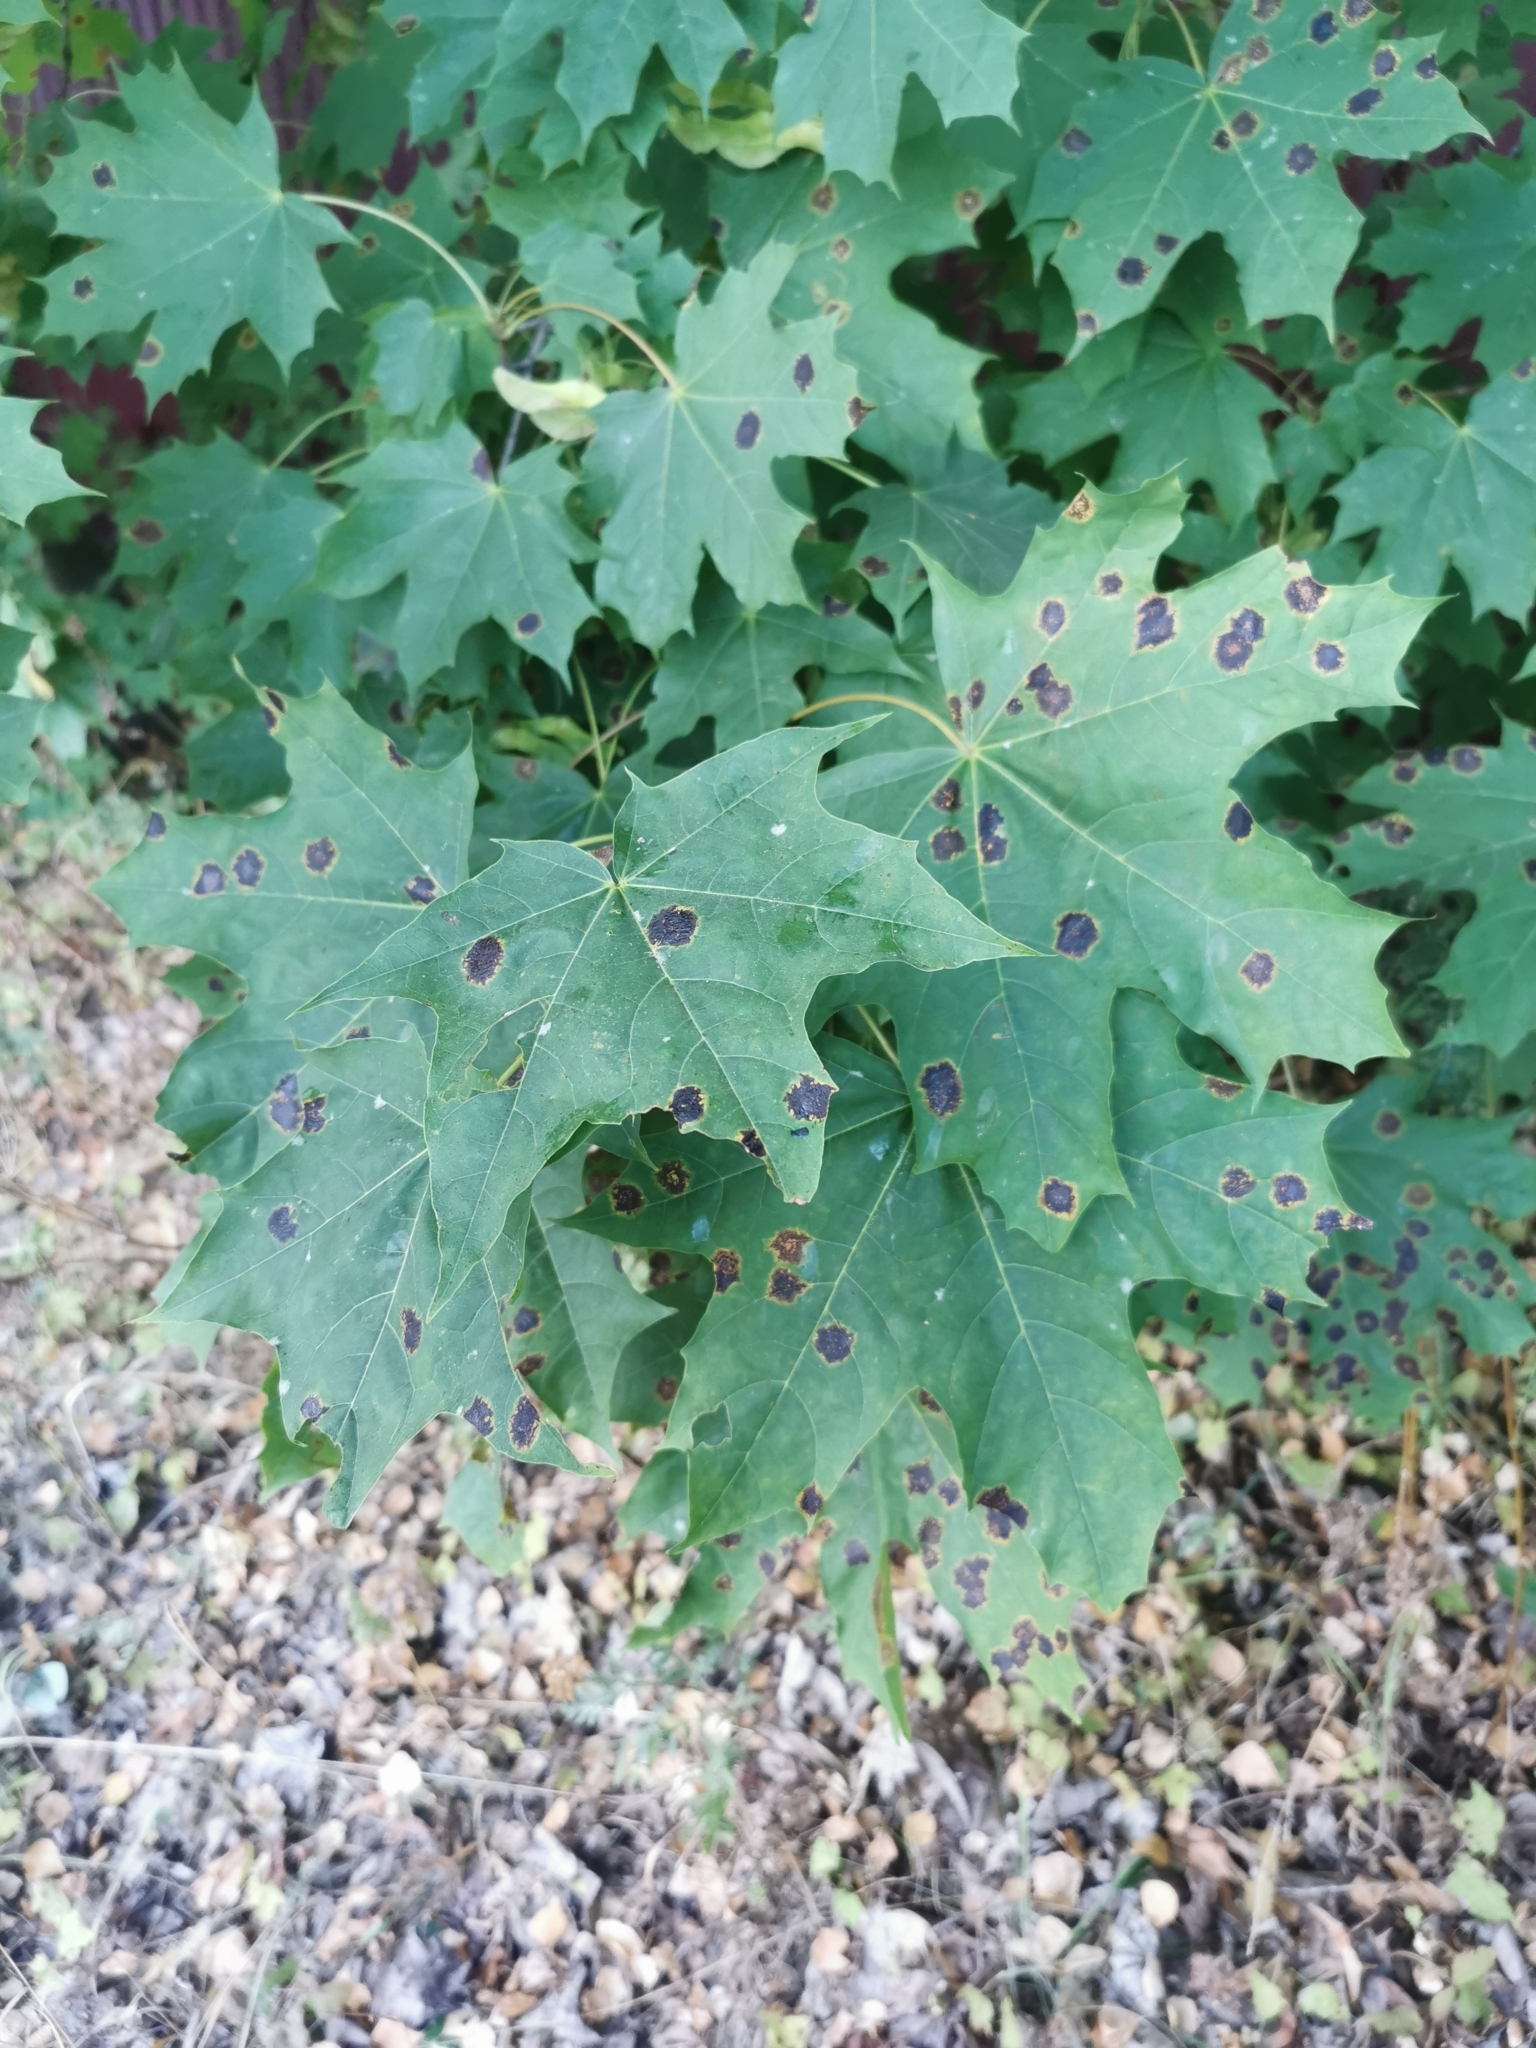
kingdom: Fungi
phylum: Ascomycota
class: Leotiomycetes
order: Rhytismatales
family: Rhytismataceae
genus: Rhytisma
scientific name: Rhytisma acerinum
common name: European tar spot
